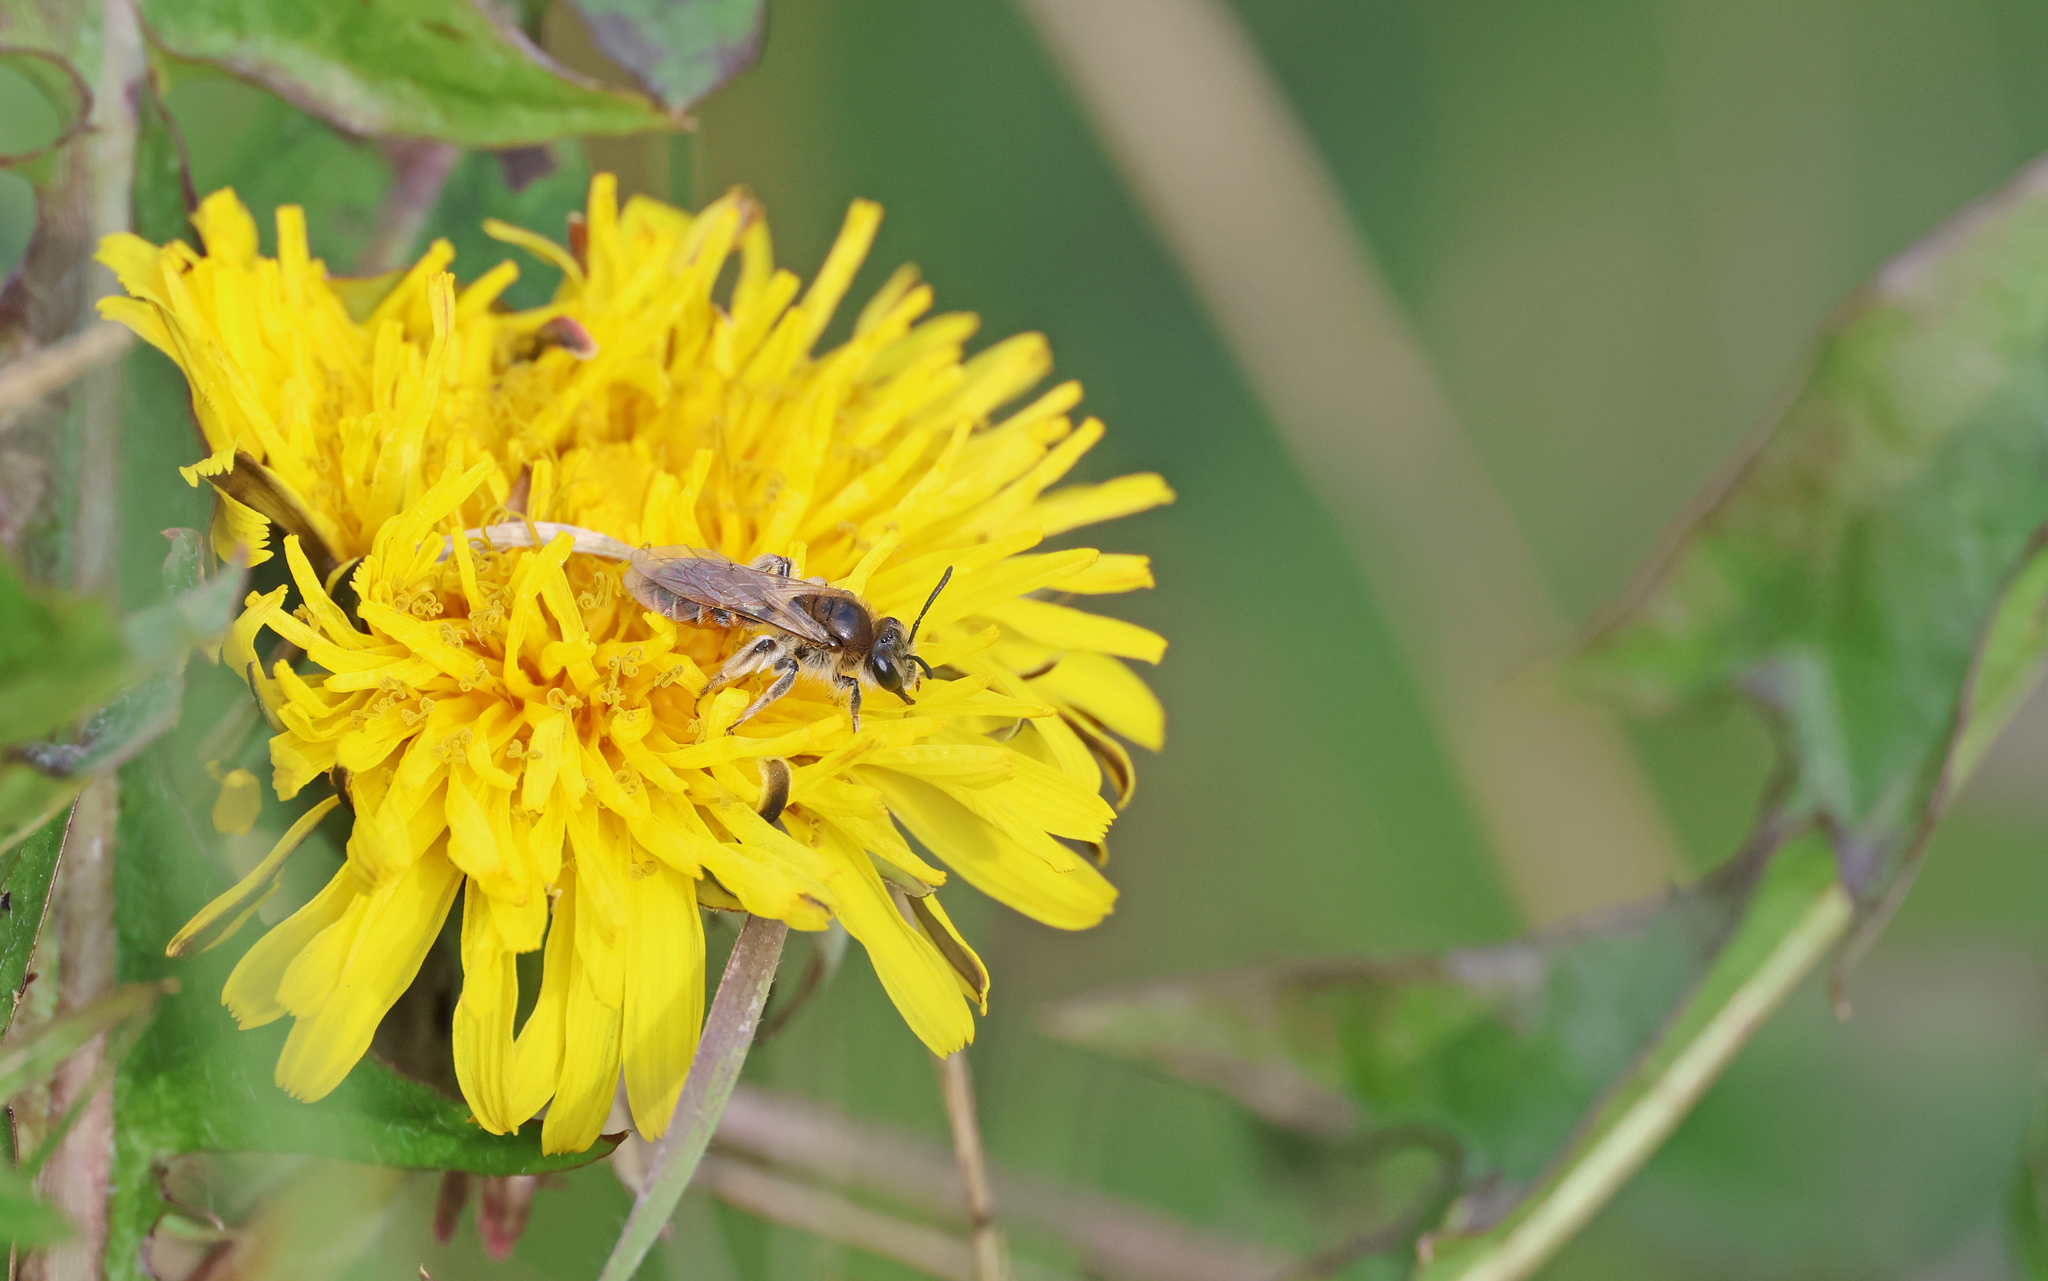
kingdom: Animalia
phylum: Arthropoda
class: Insecta
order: Hymenoptera
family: Andrenidae
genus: Andrena
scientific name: Andrena ventralis
